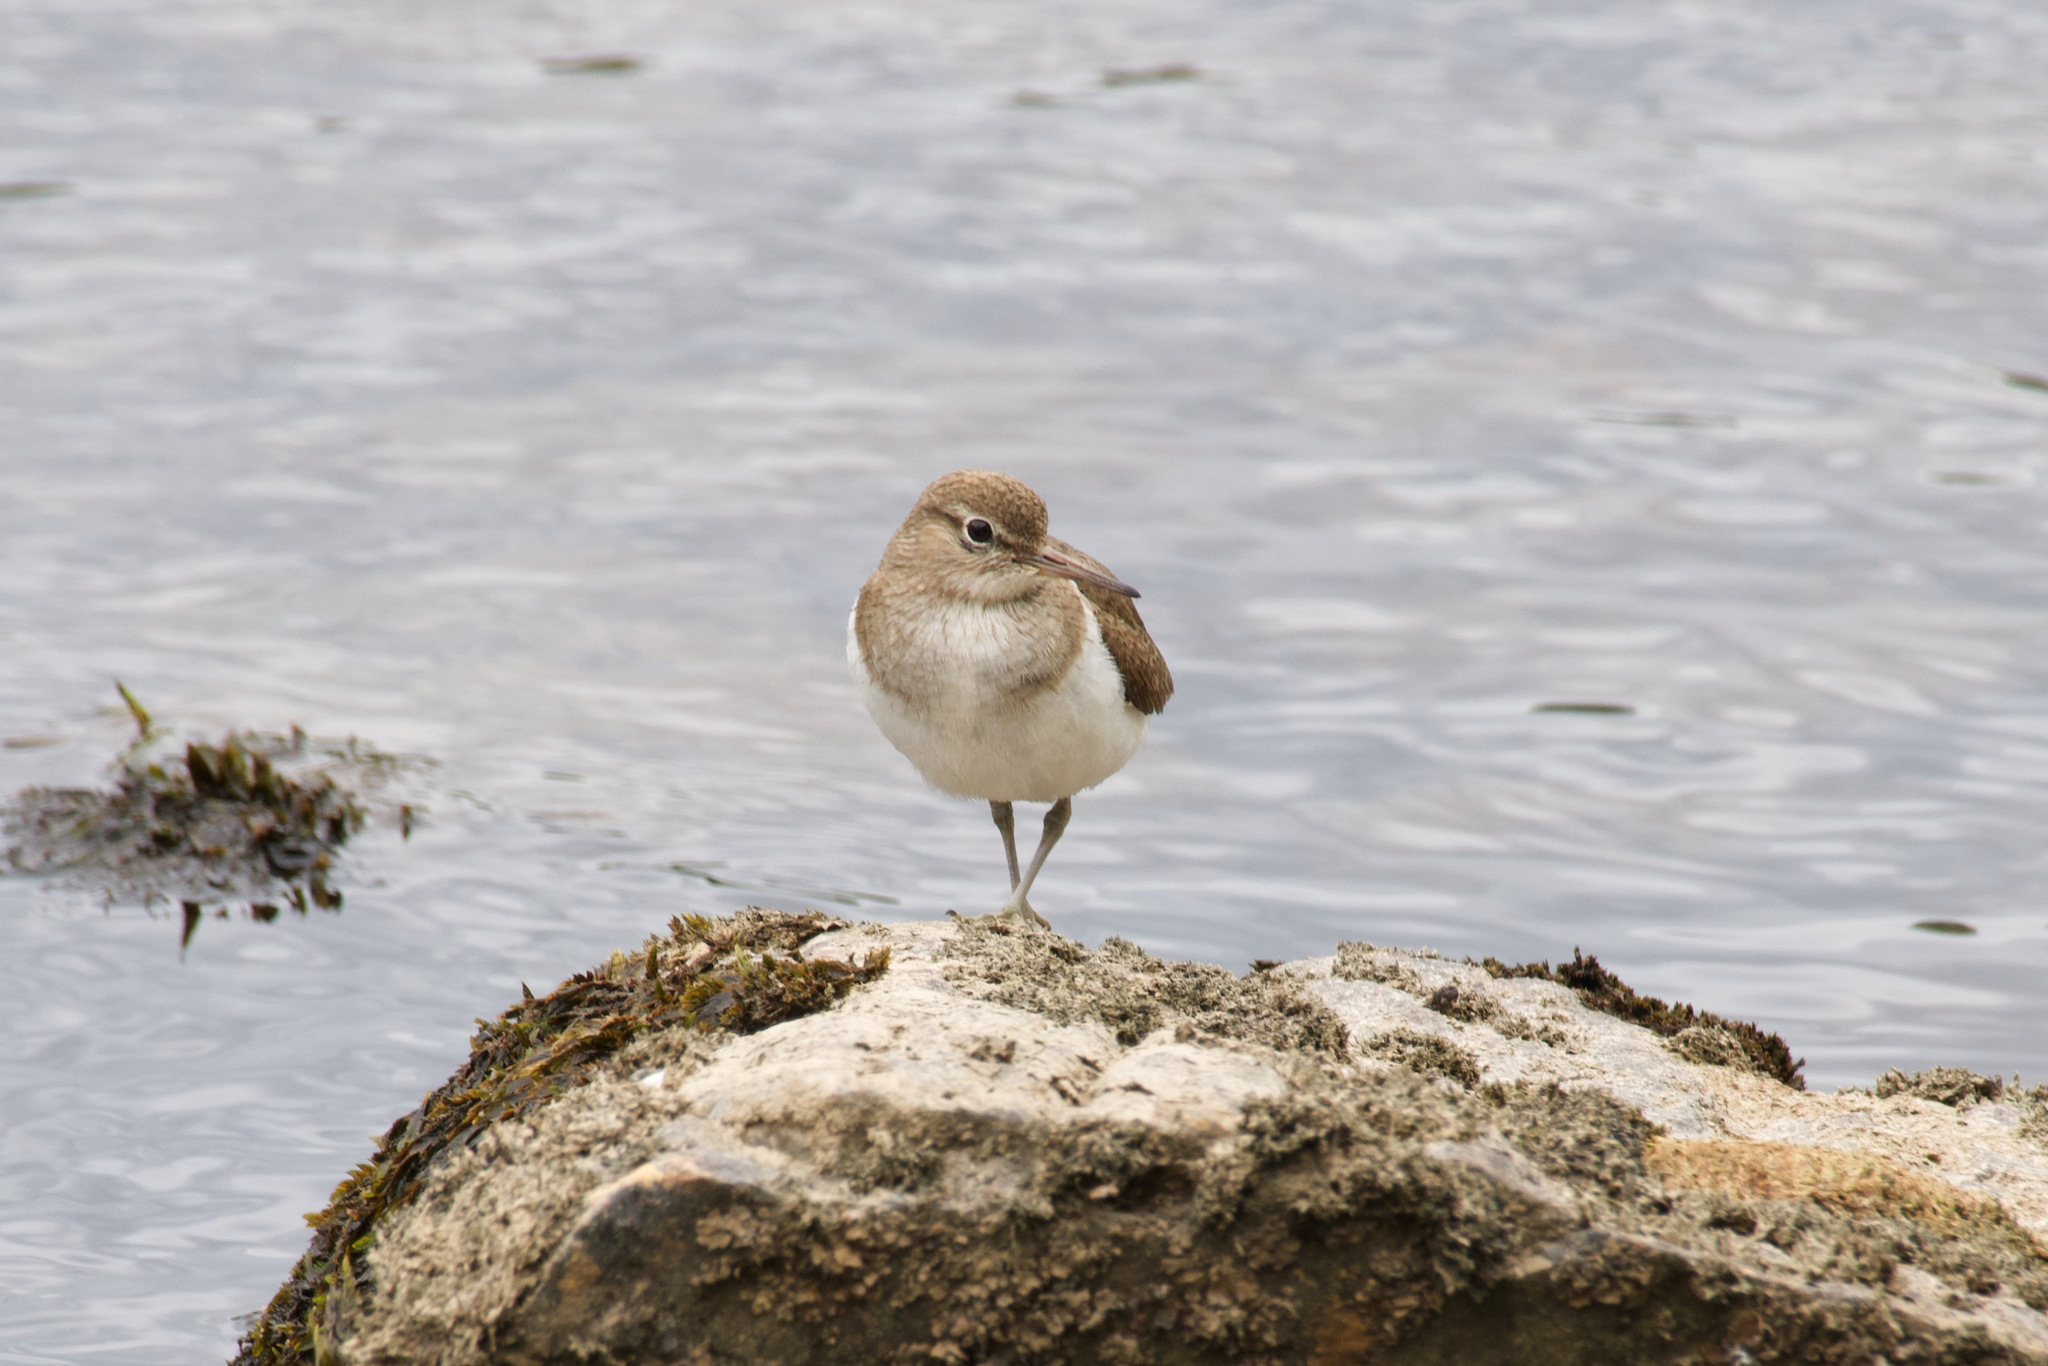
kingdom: Animalia
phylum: Chordata
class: Aves
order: Charadriiformes
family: Scolopacidae
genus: Actitis
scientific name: Actitis hypoleucos
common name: Common sandpiper
